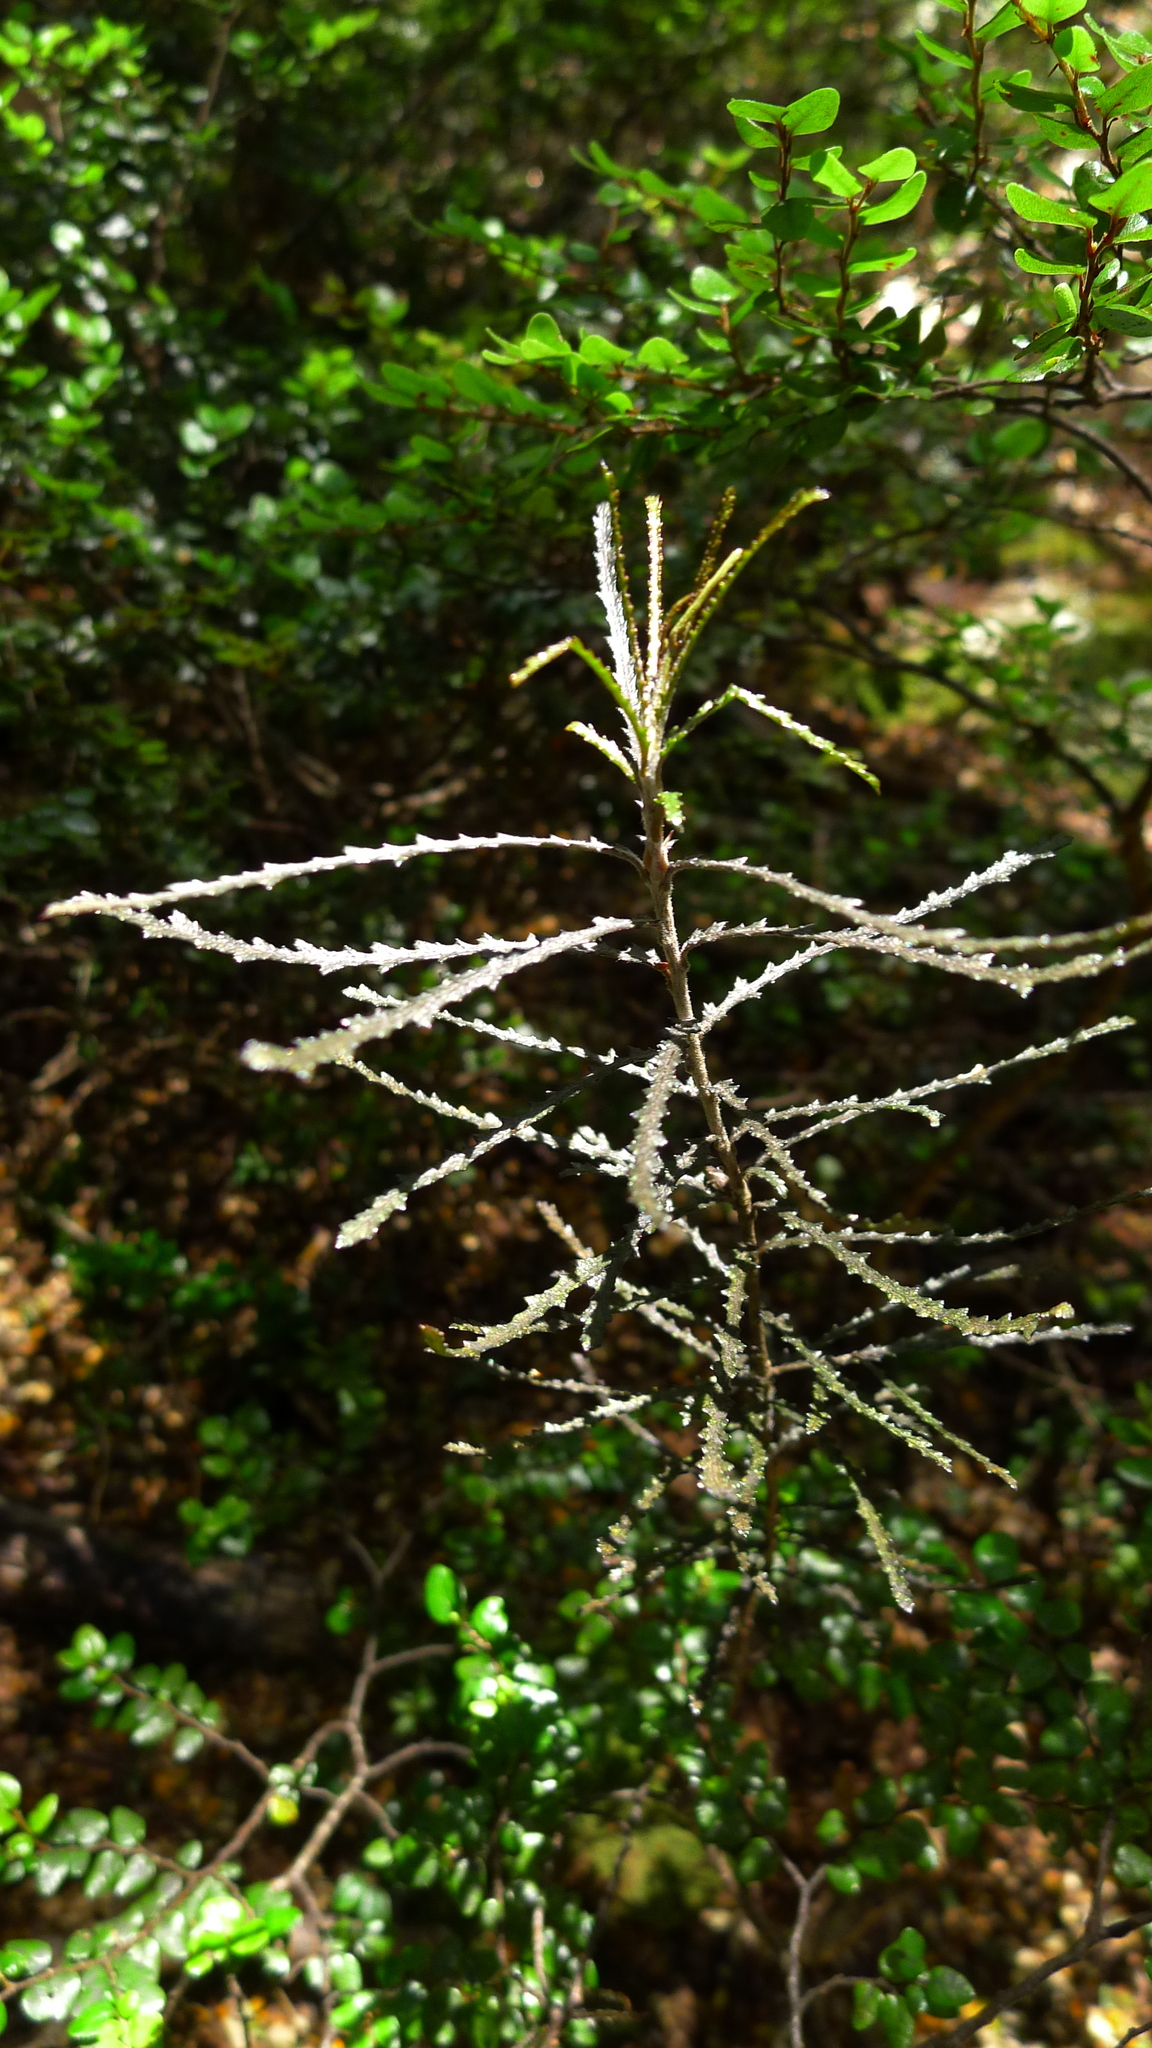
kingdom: Plantae
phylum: Tracheophyta
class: Magnoliopsida
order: Apiales
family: Pittosporaceae
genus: Pittosporum
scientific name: Pittosporum patulum
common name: Pitpat
